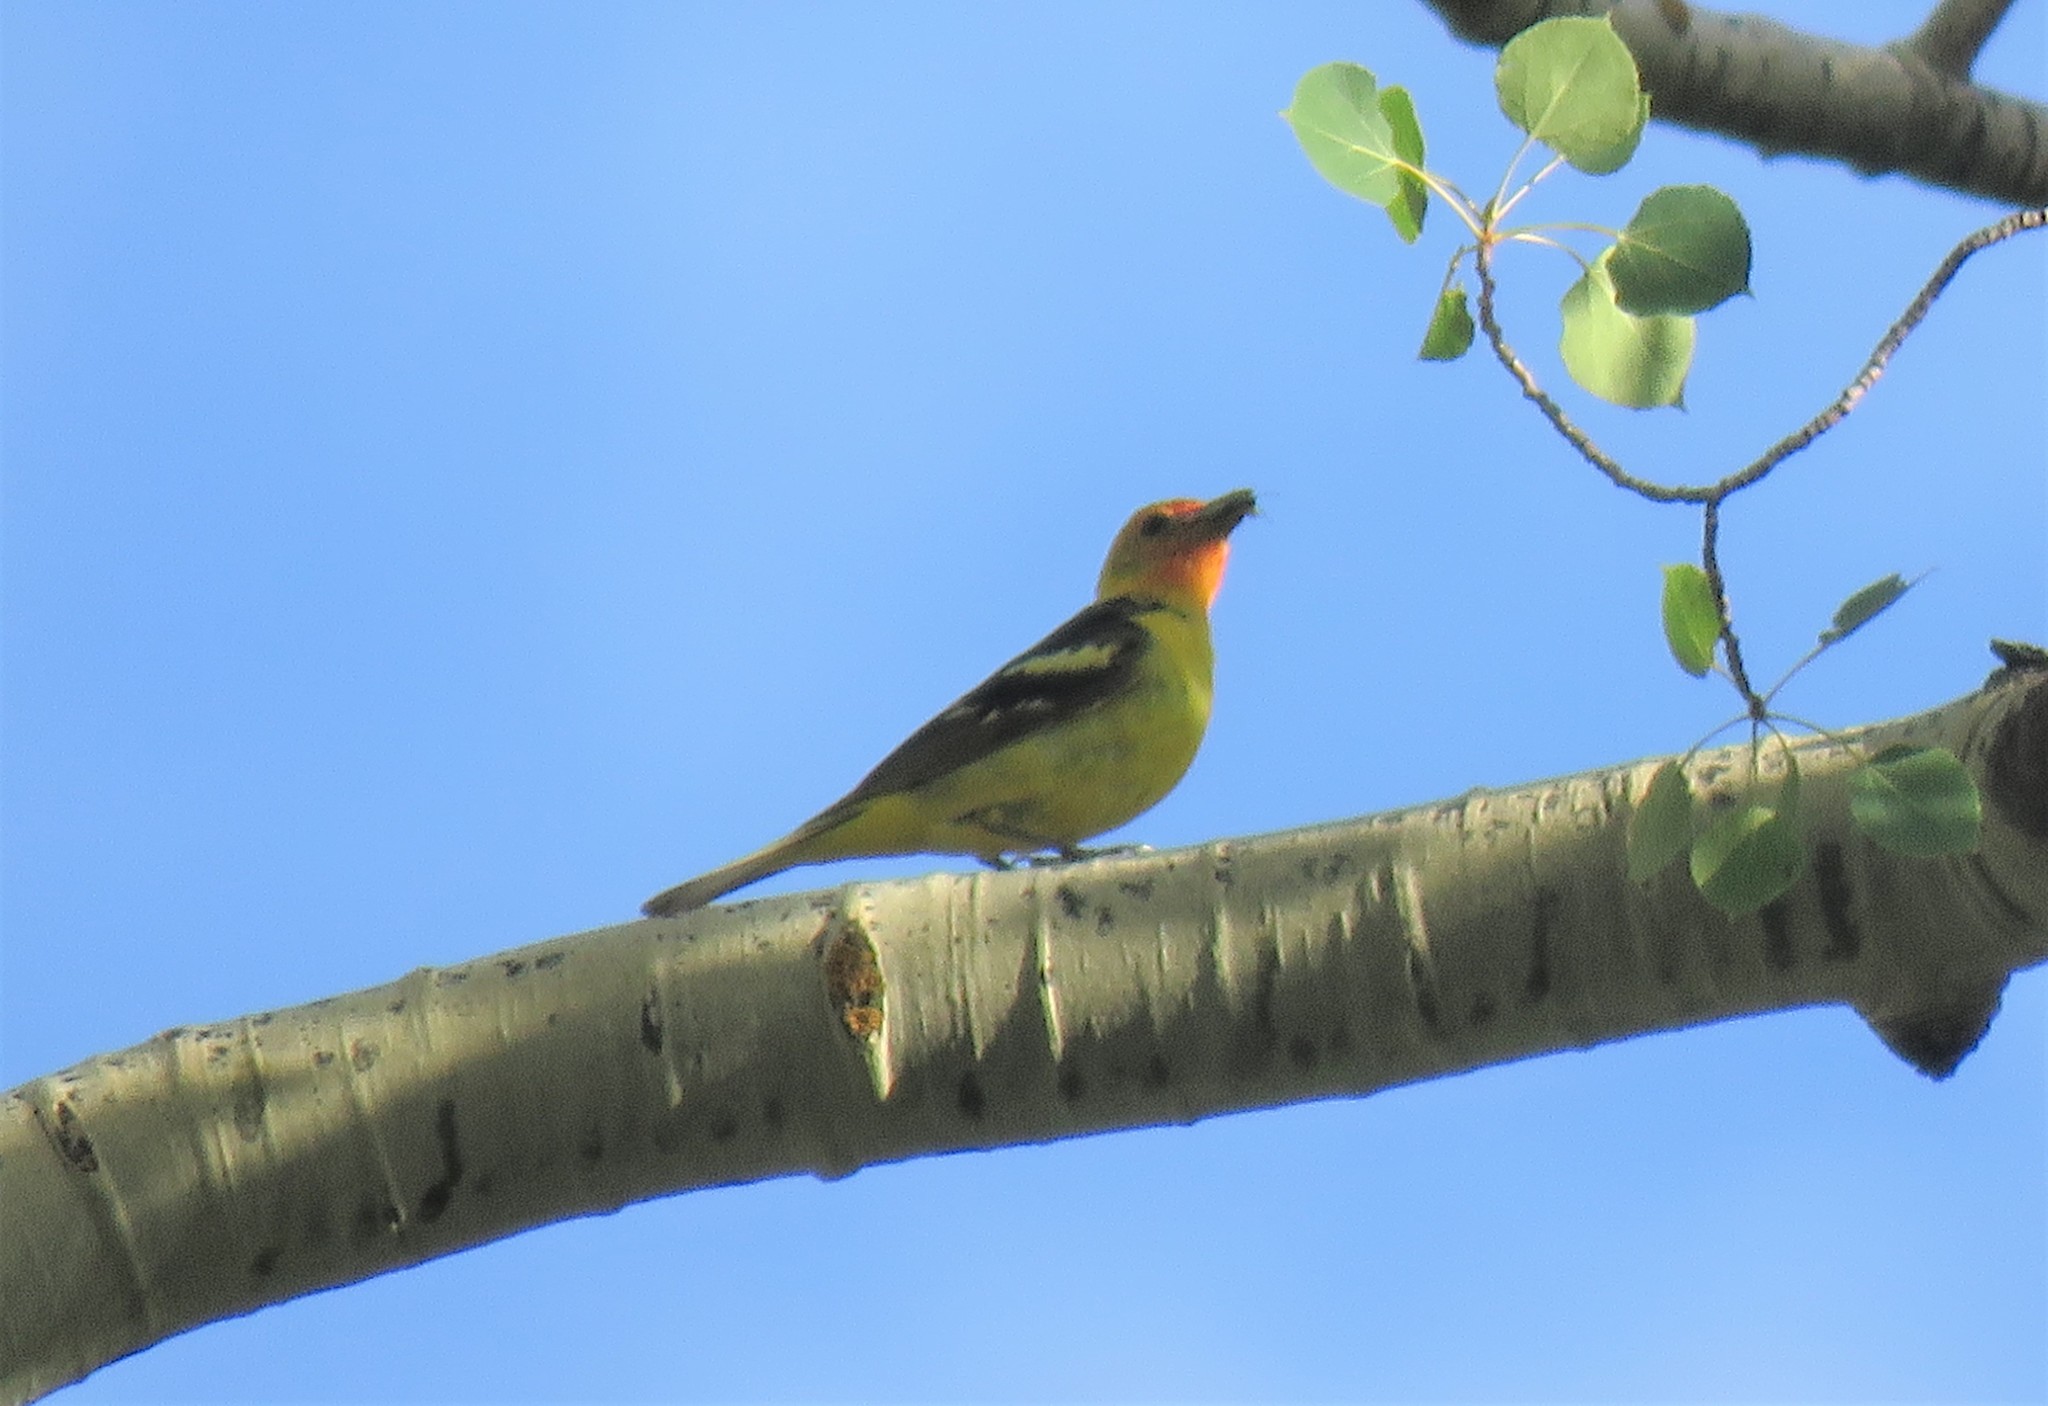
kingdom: Animalia
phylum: Chordata
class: Aves
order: Passeriformes
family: Cardinalidae
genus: Piranga
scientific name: Piranga ludoviciana
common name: Western tanager
